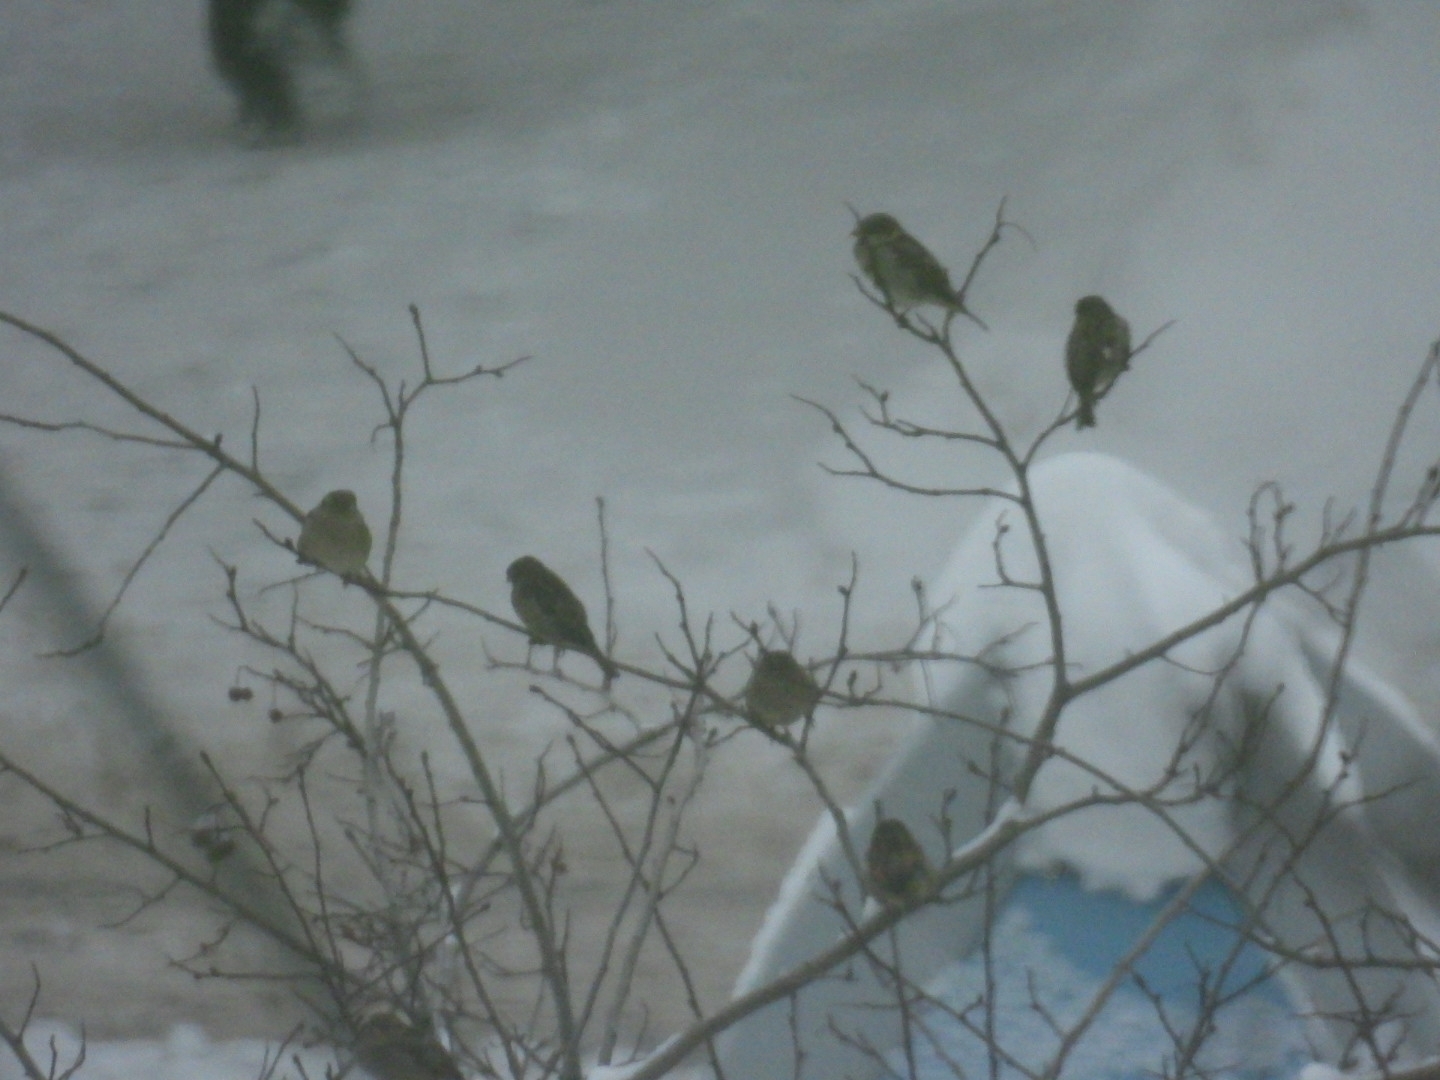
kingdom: Animalia
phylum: Chordata
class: Aves
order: Passeriformes
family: Passeridae
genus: Passer
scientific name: Passer domesticus
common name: House sparrow
